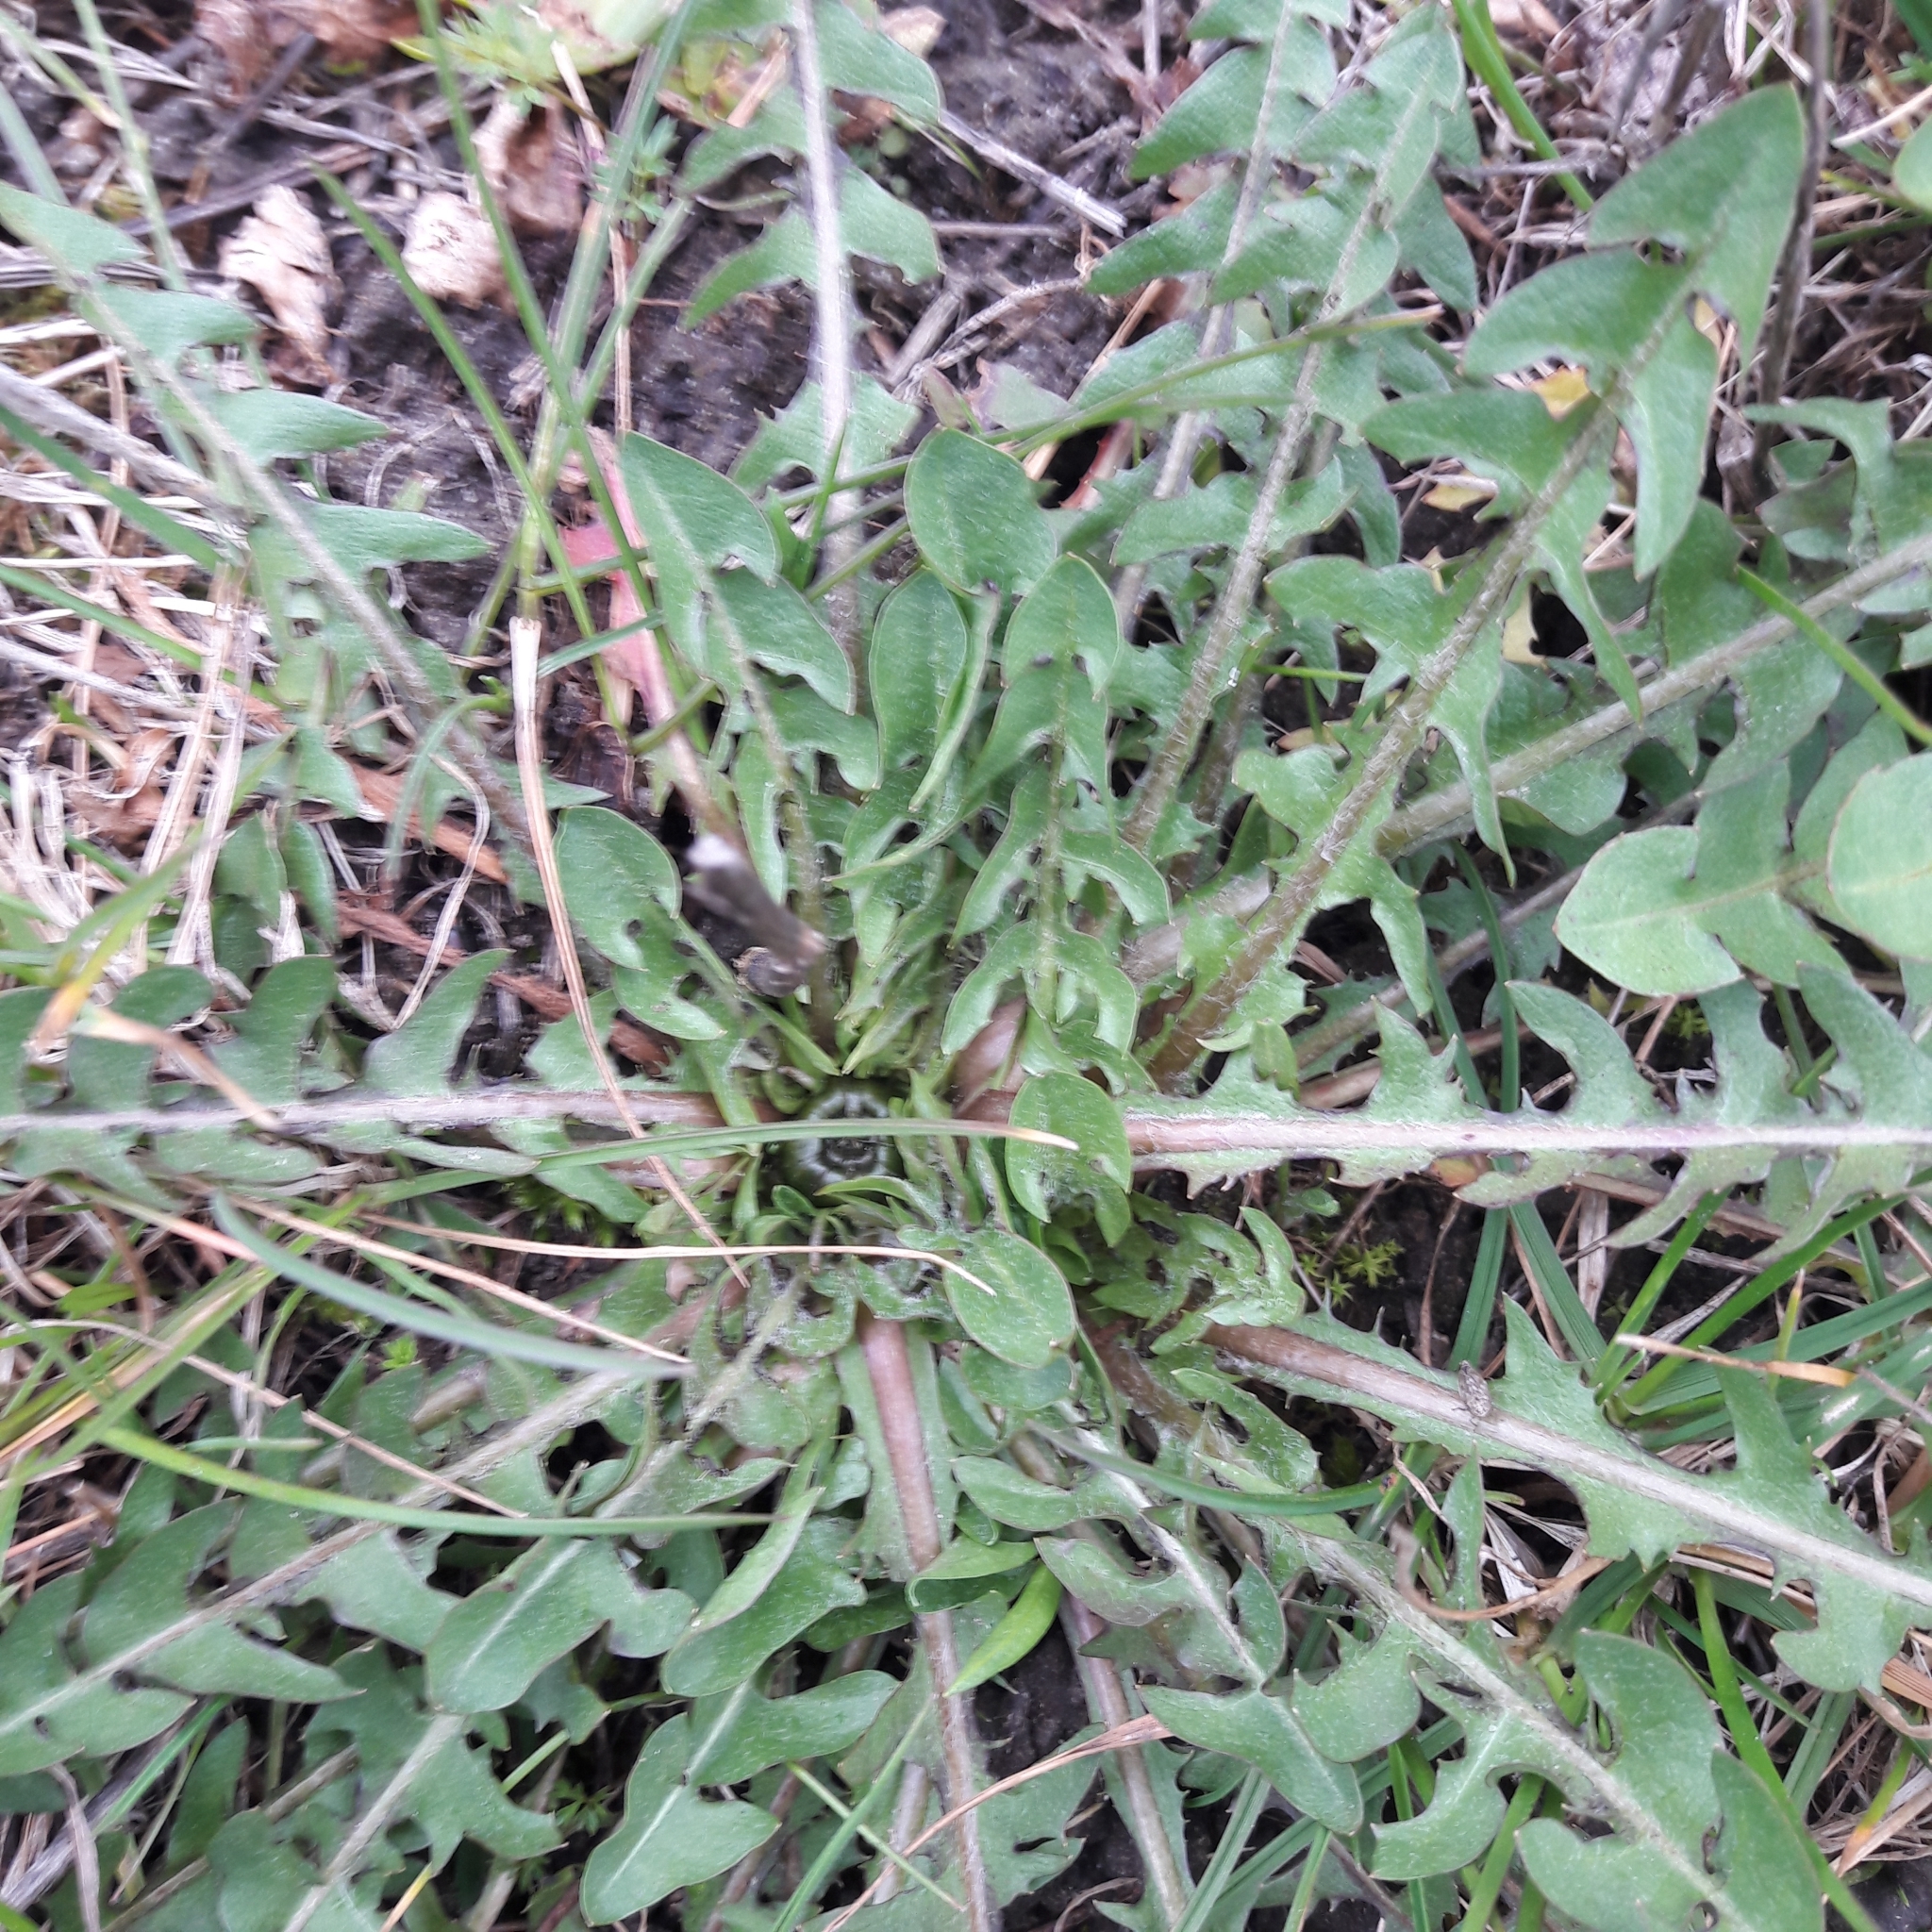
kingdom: Plantae
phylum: Tracheophyta
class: Magnoliopsida
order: Asterales
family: Asteraceae
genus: Taraxacum
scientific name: Taraxacum officinale
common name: Common dandelion
